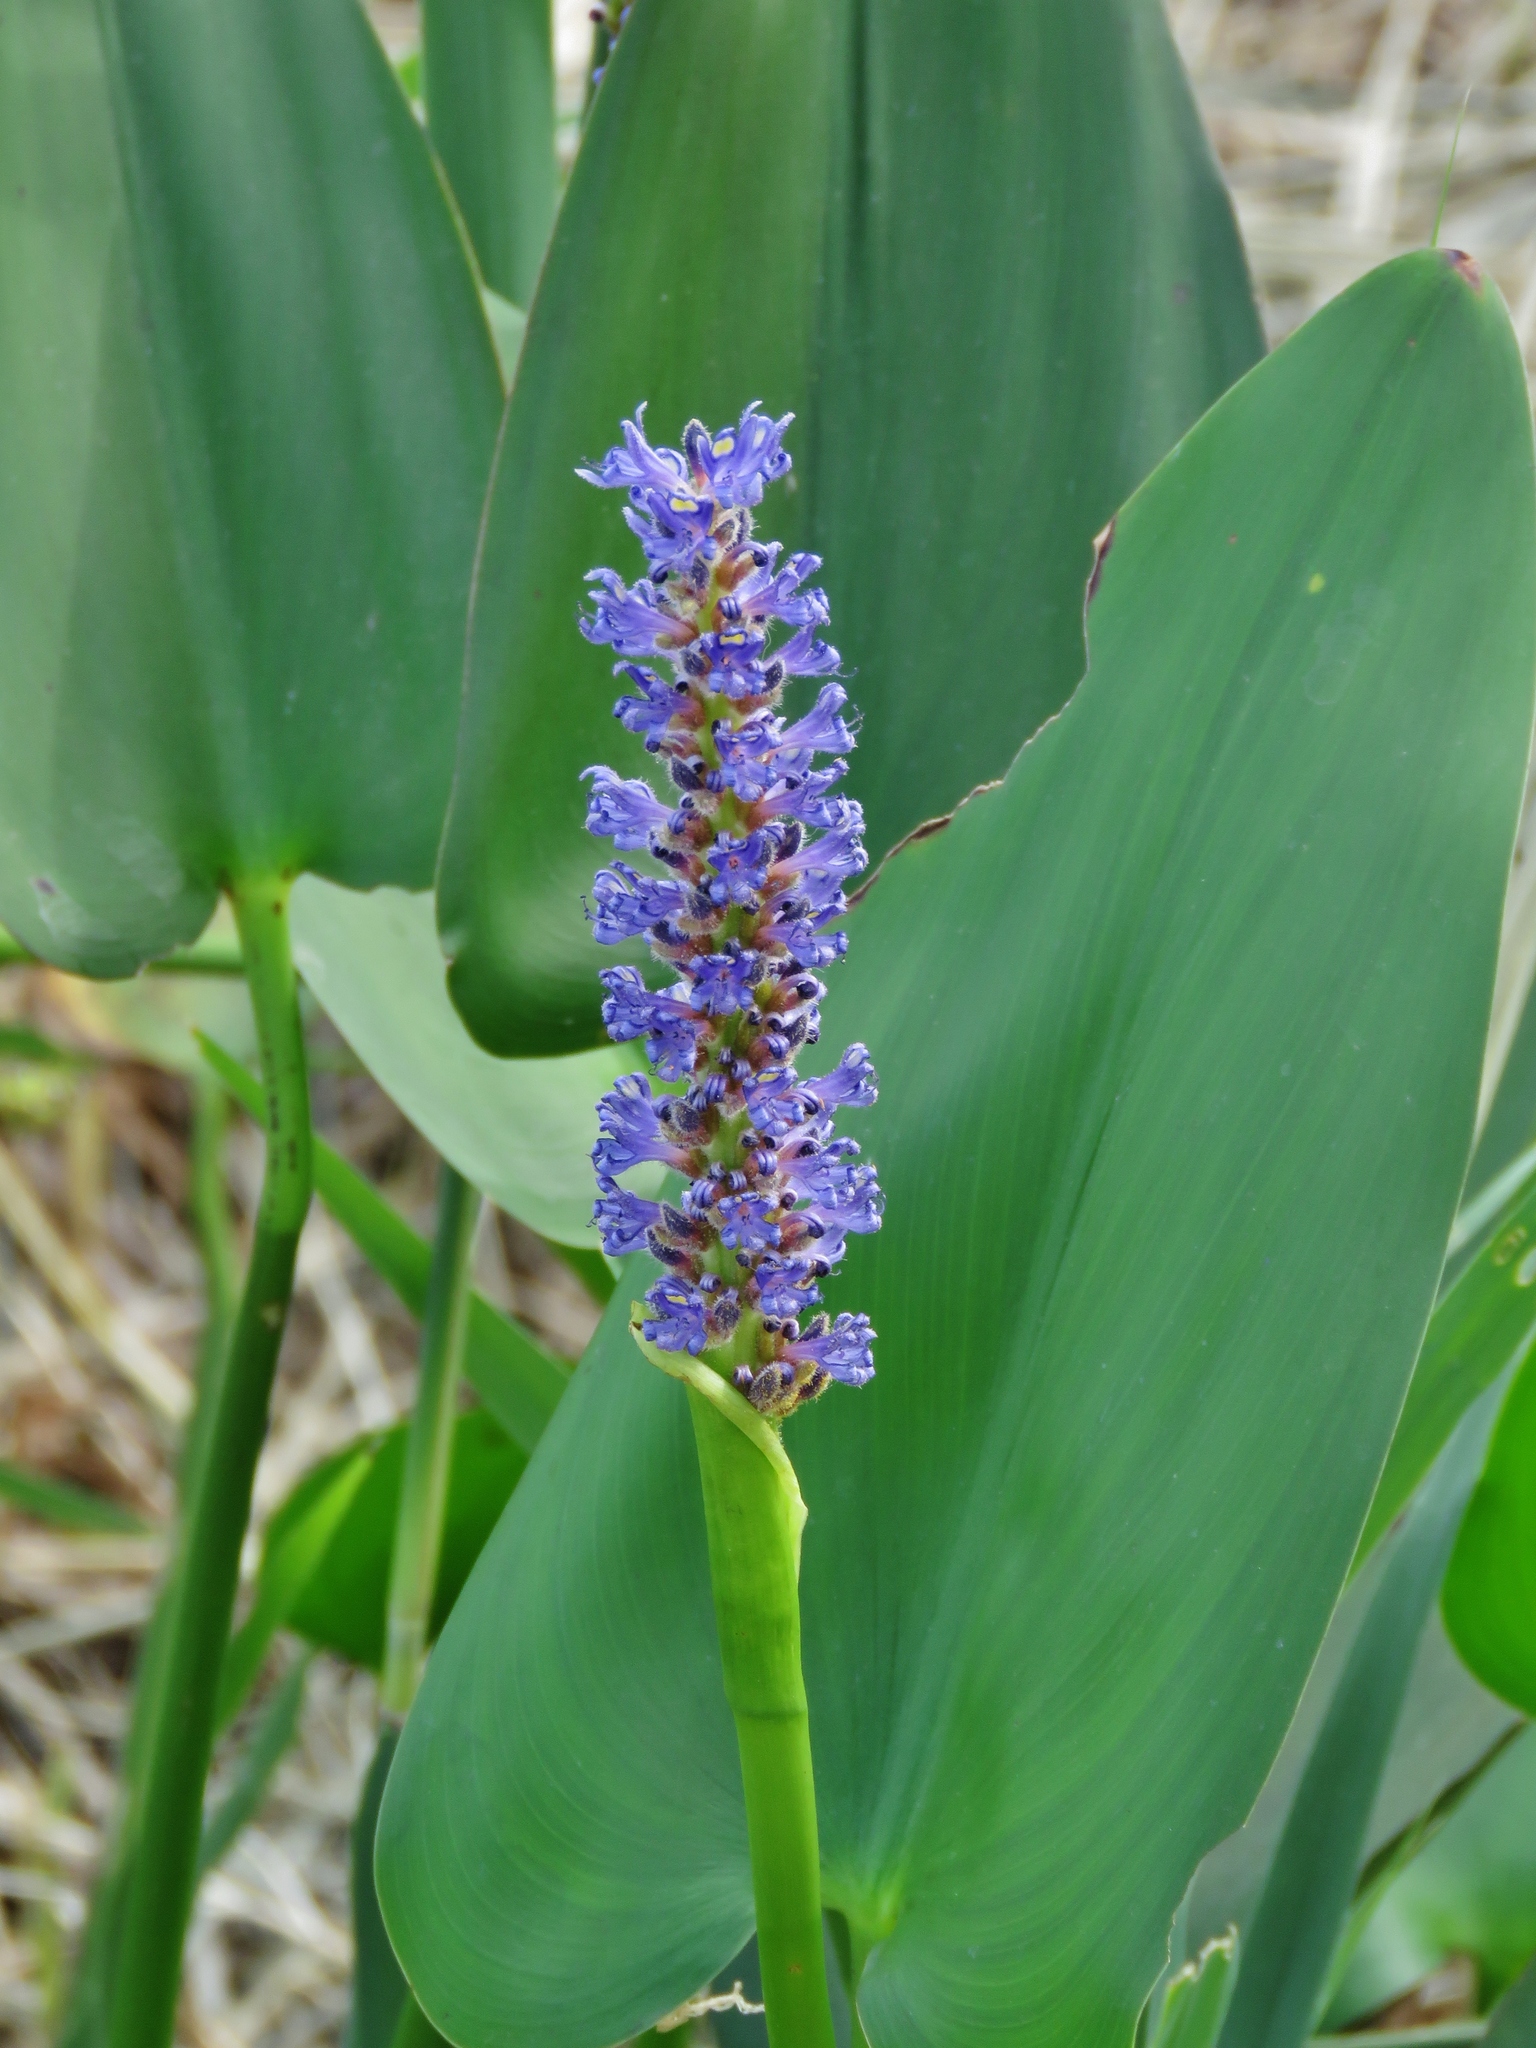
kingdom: Plantae
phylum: Tracheophyta
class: Liliopsida
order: Commelinales
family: Pontederiaceae
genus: Pontederia
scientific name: Pontederia cordata
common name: Pickerelweed
